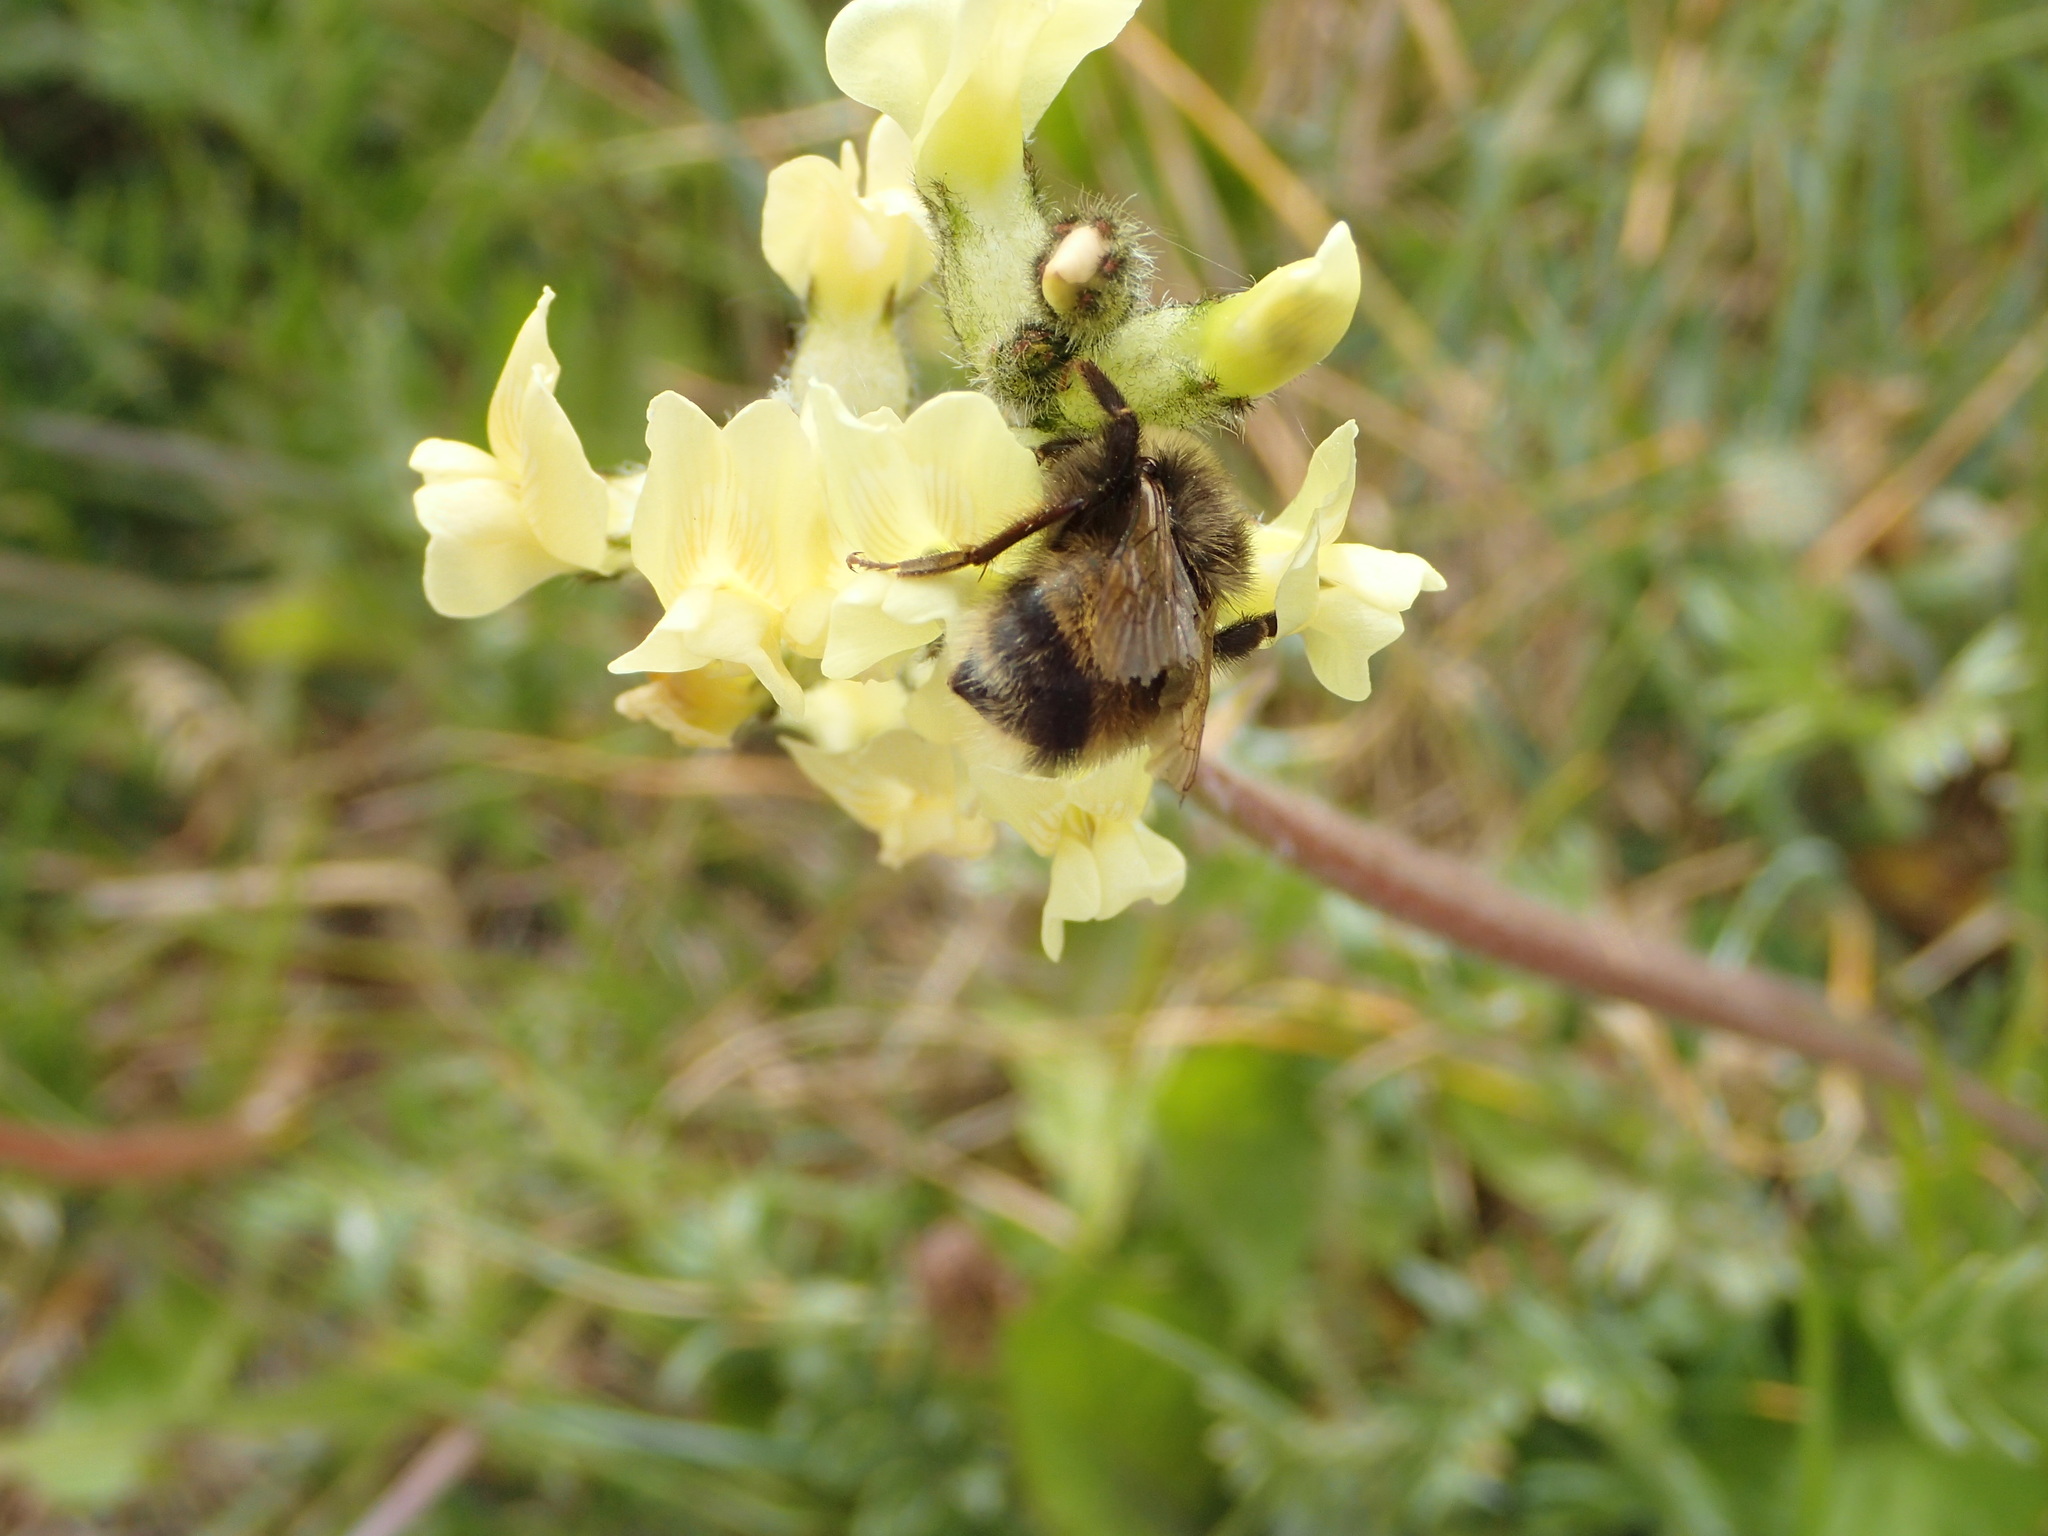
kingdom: Animalia
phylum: Arthropoda
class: Insecta
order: Hymenoptera
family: Apidae
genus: Bombus
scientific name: Bombus mckayi
